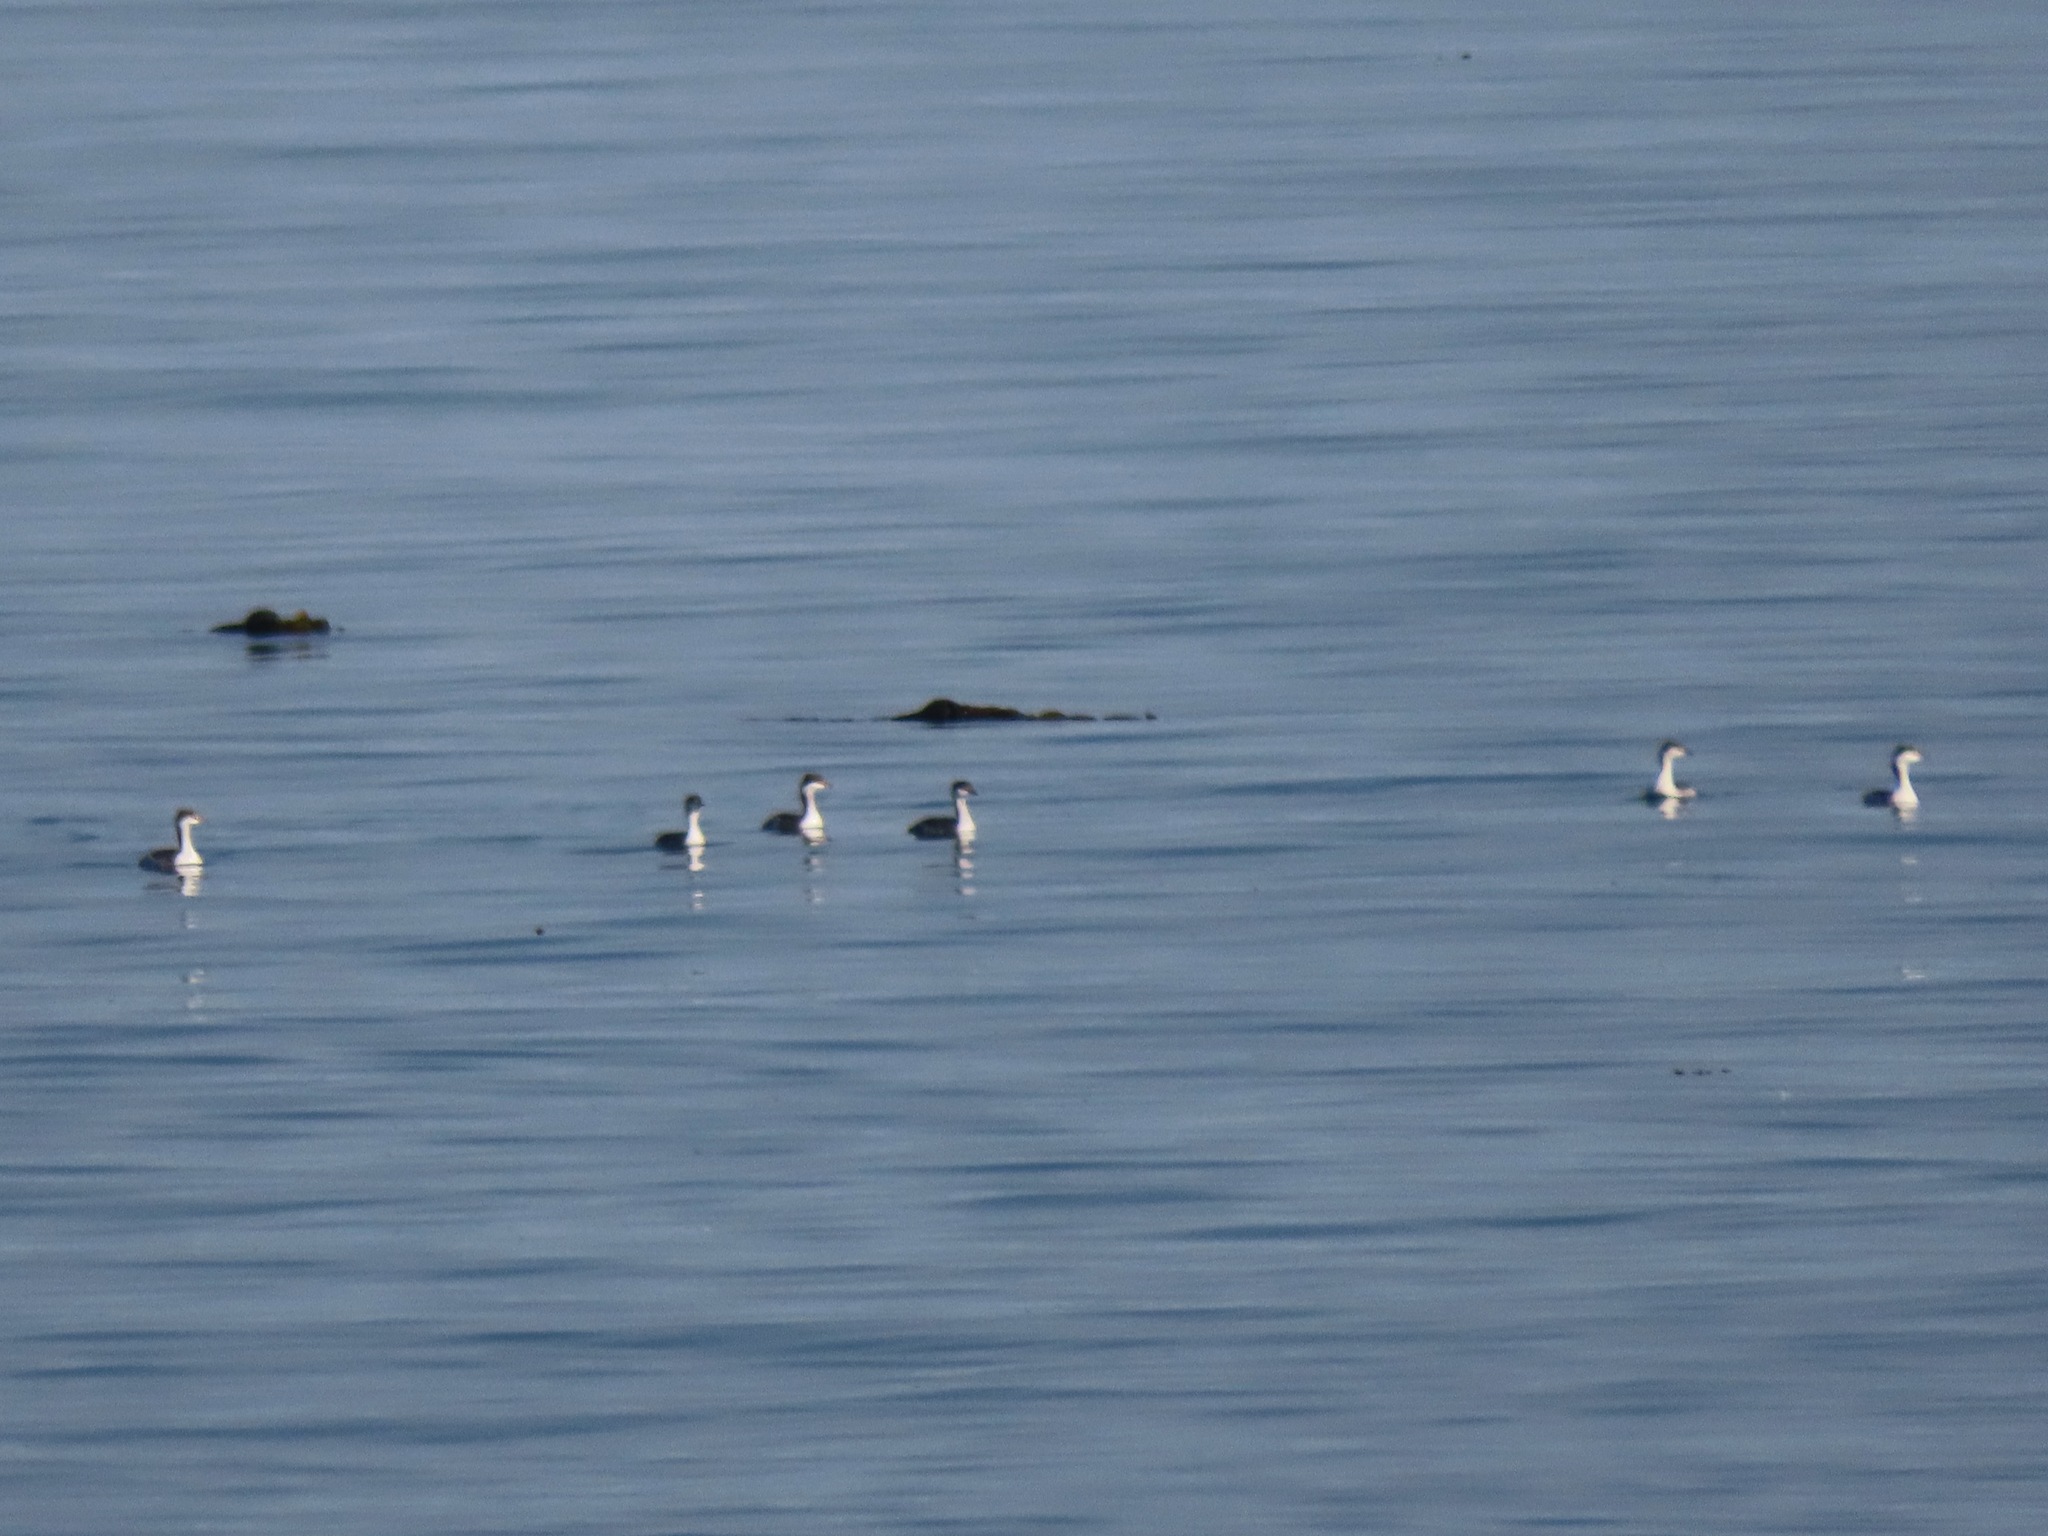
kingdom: Animalia
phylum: Chordata
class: Aves
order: Podicipediformes
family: Podicipedidae
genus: Podiceps
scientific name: Podiceps auritus
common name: Horned grebe
